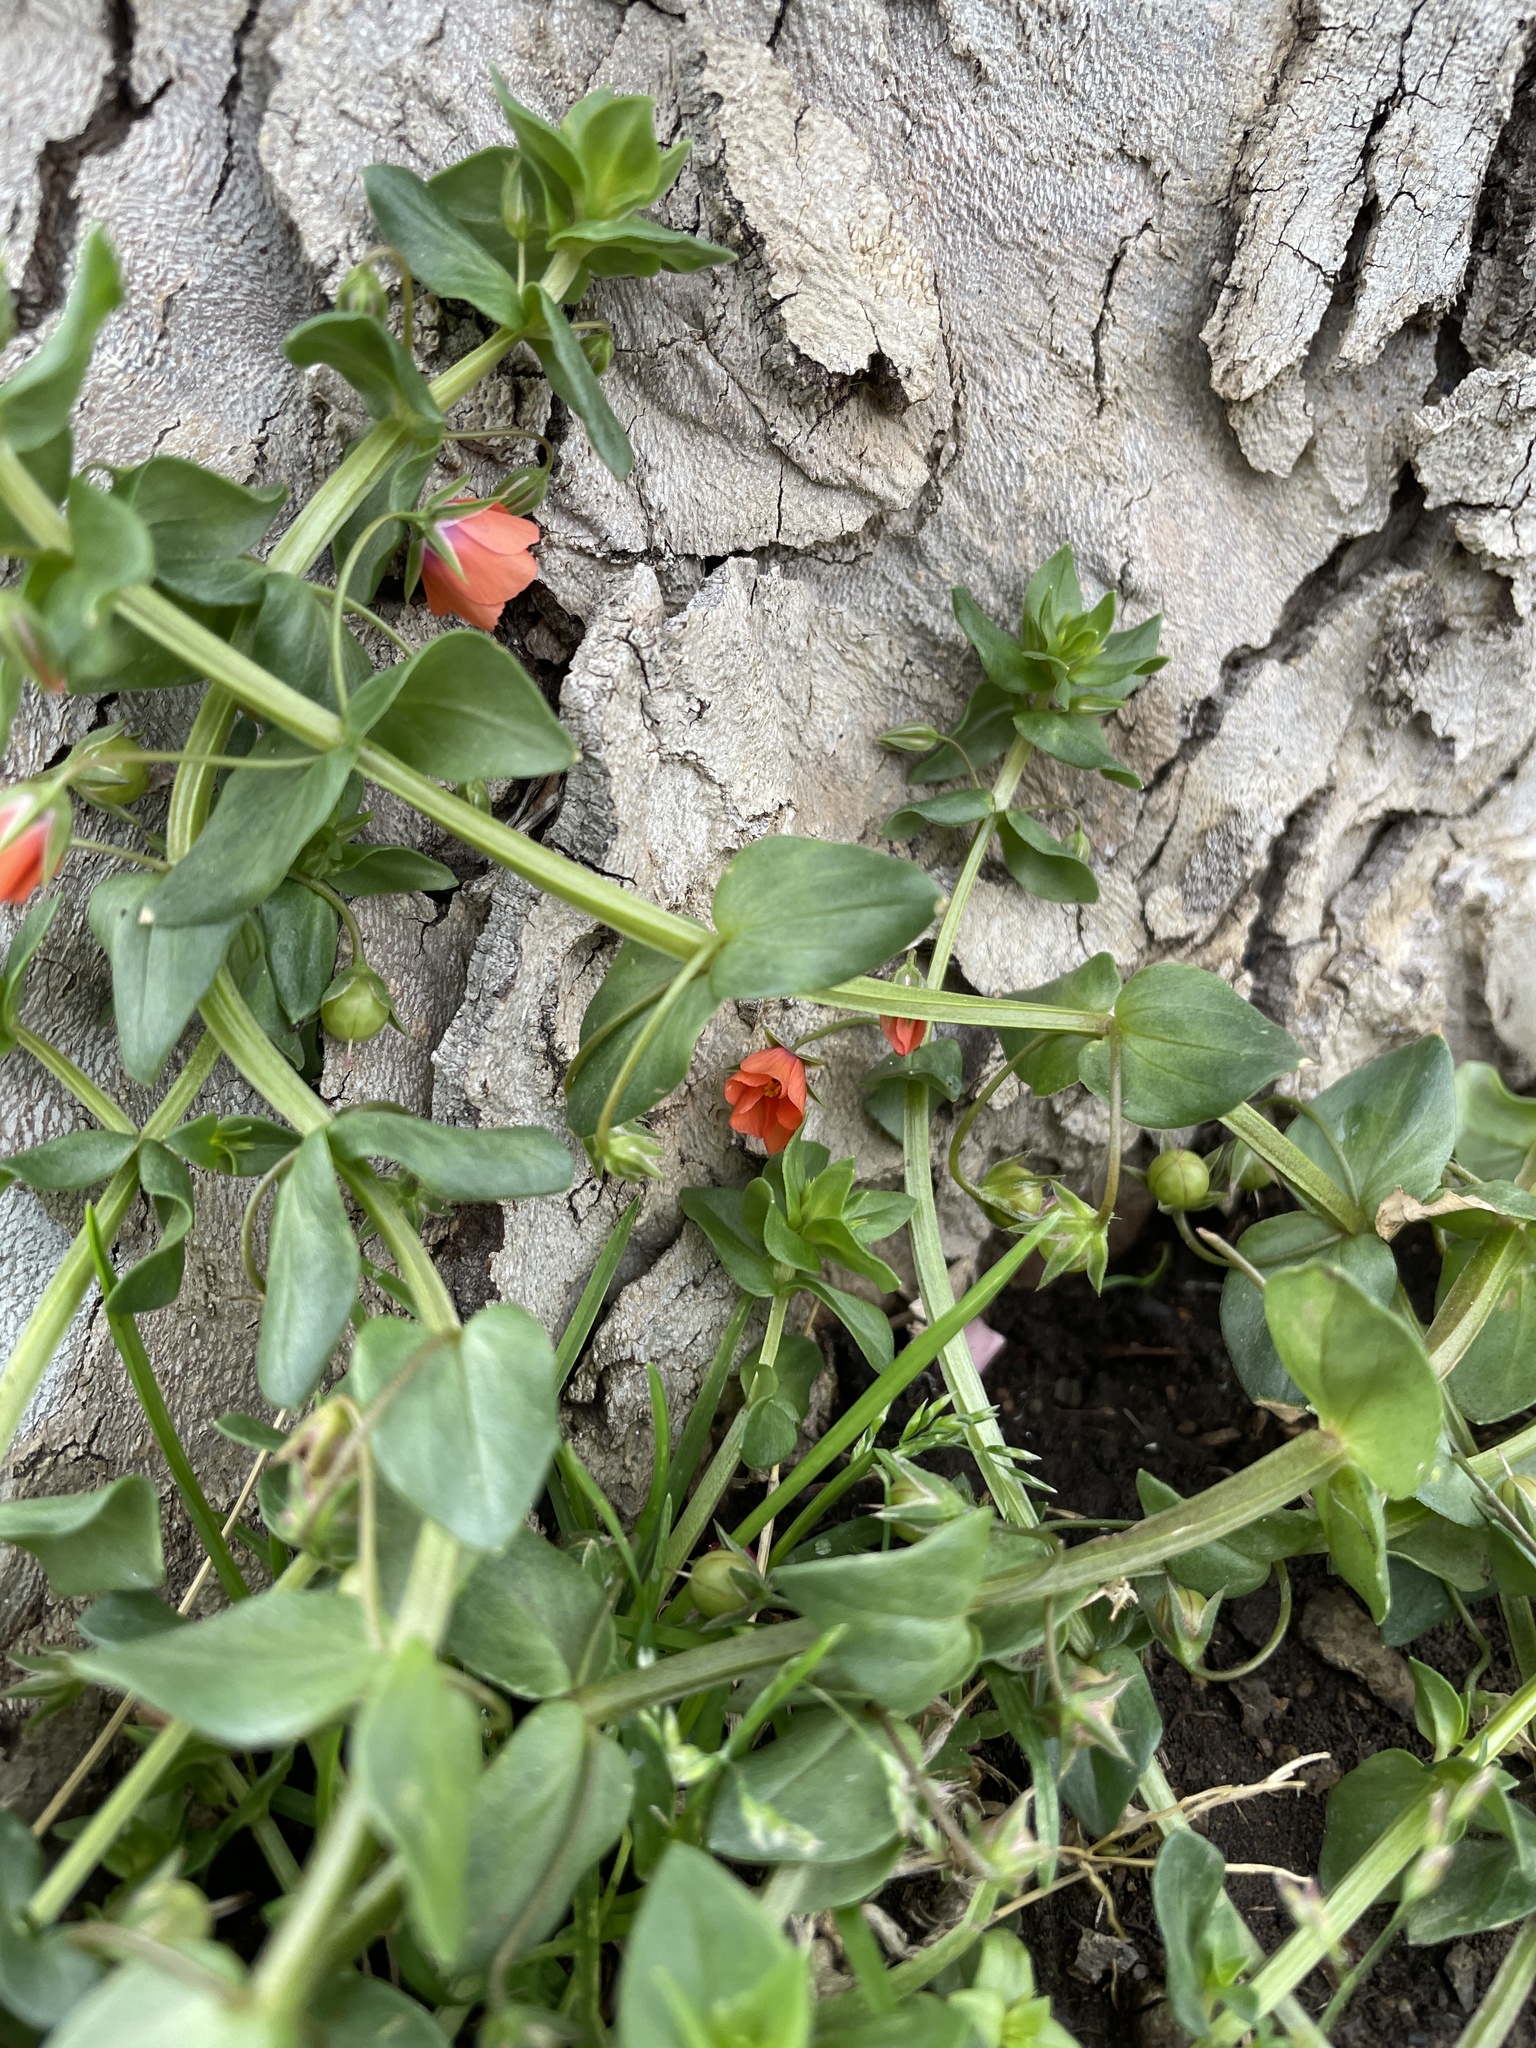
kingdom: Plantae
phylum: Tracheophyta
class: Magnoliopsida
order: Ericales
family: Primulaceae
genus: Lysimachia
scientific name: Lysimachia arvensis
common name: Scarlet pimpernel
